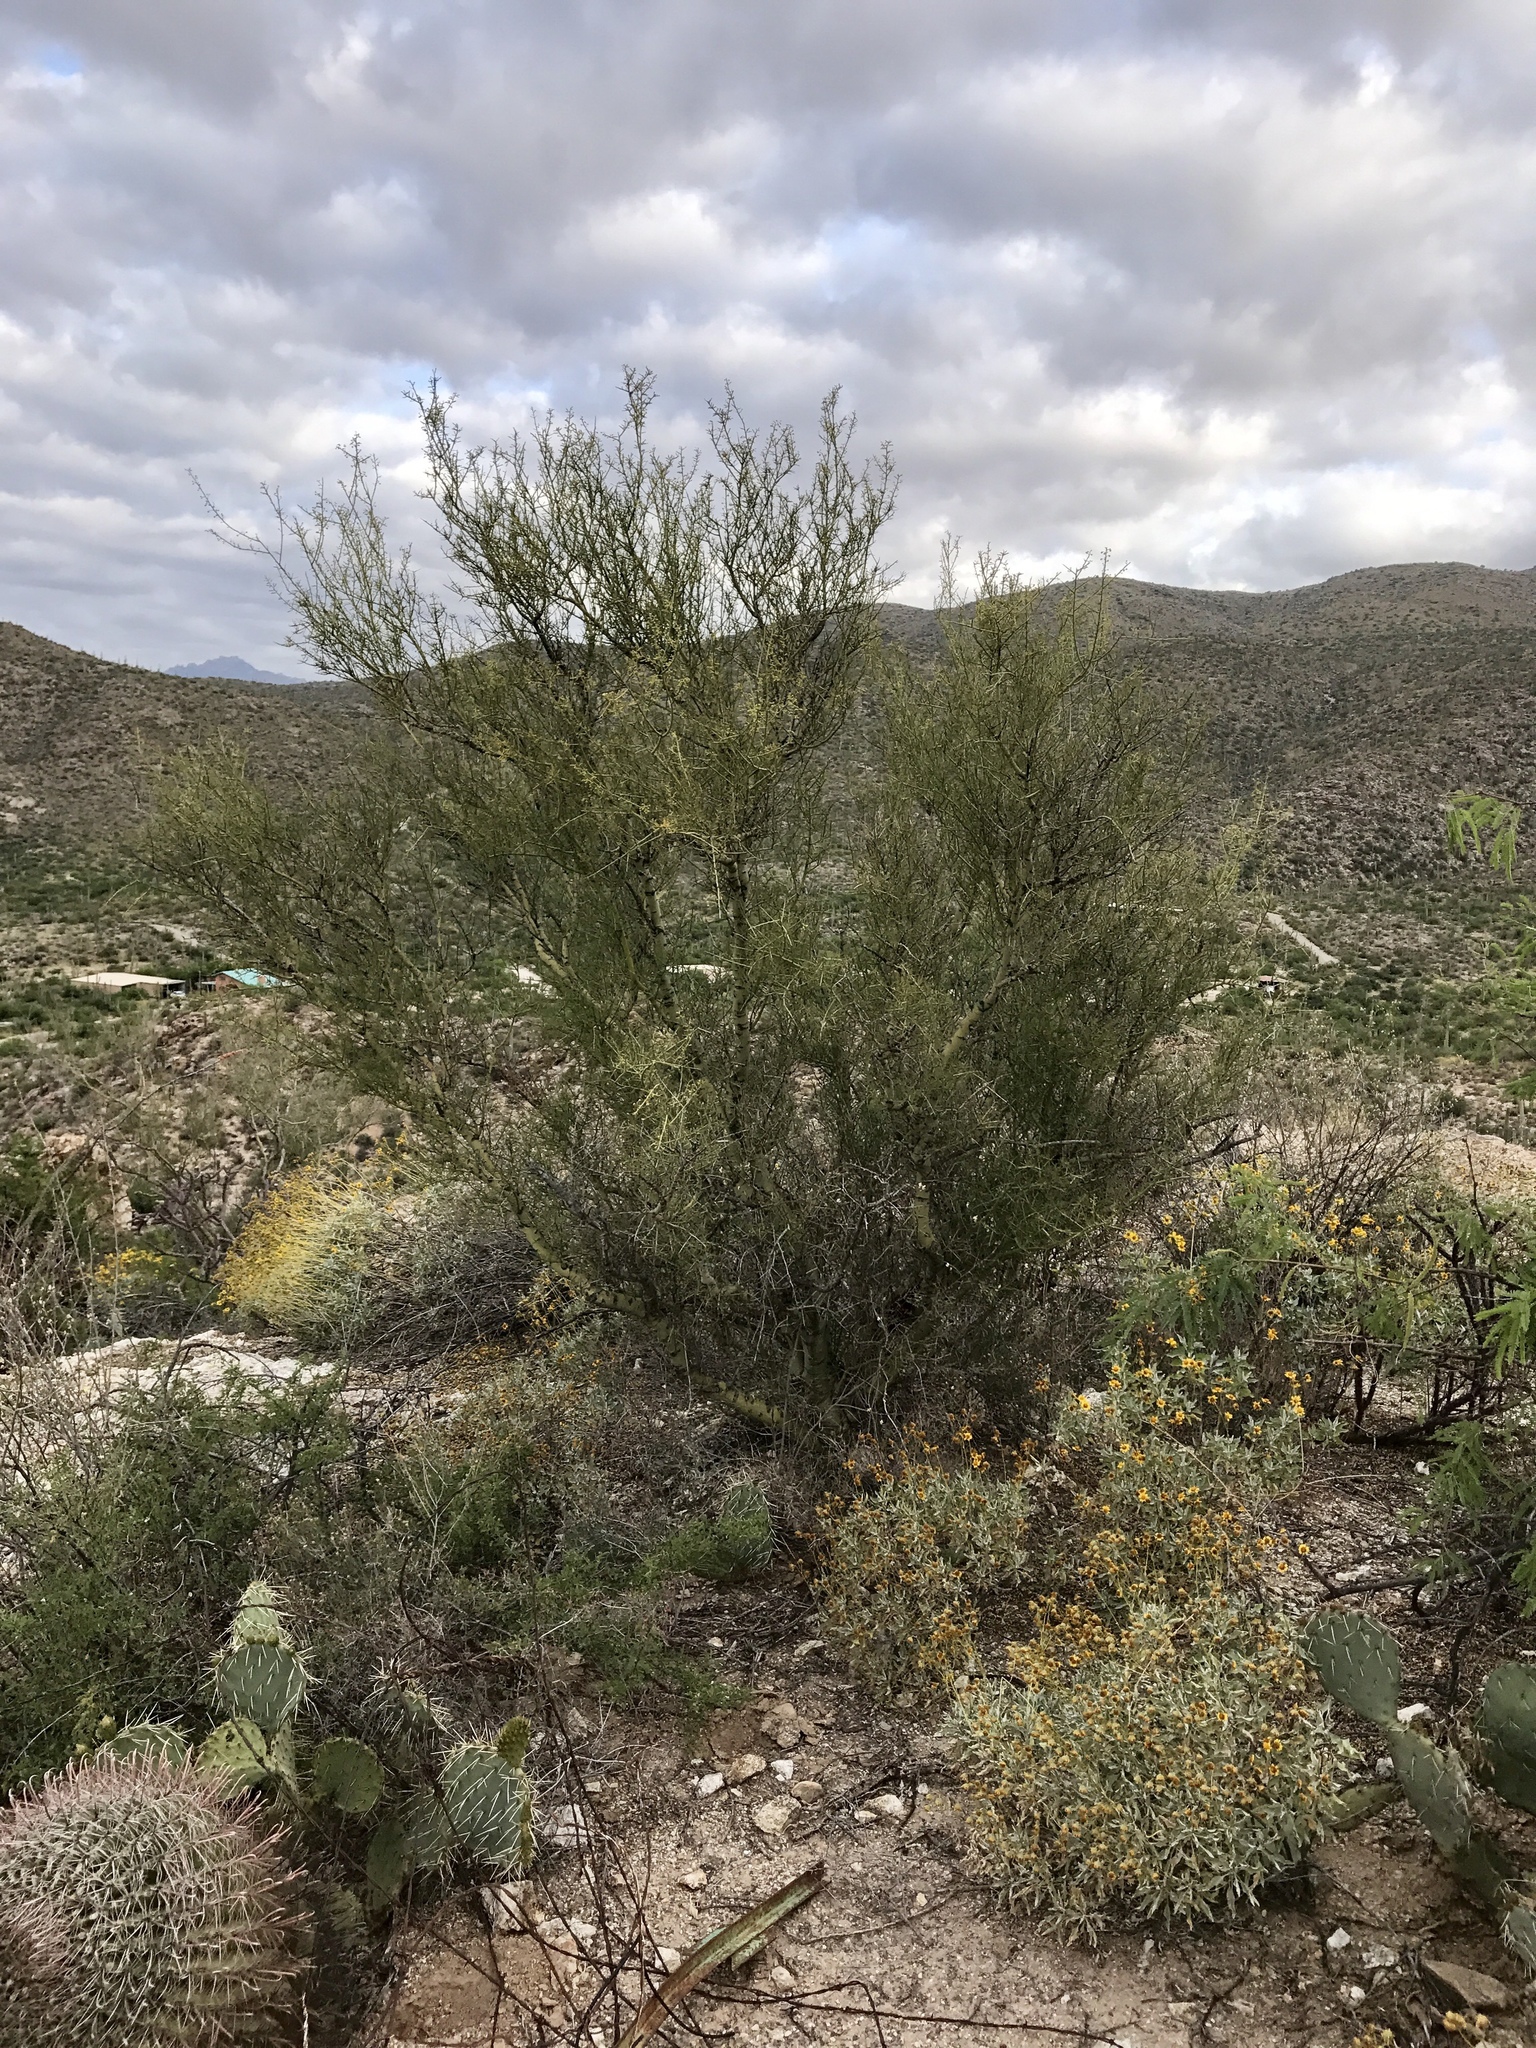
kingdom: Plantae
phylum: Tracheophyta
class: Magnoliopsida
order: Fabales
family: Fabaceae
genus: Parkinsonia
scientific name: Parkinsonia microphylla
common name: Yellow paloverde
